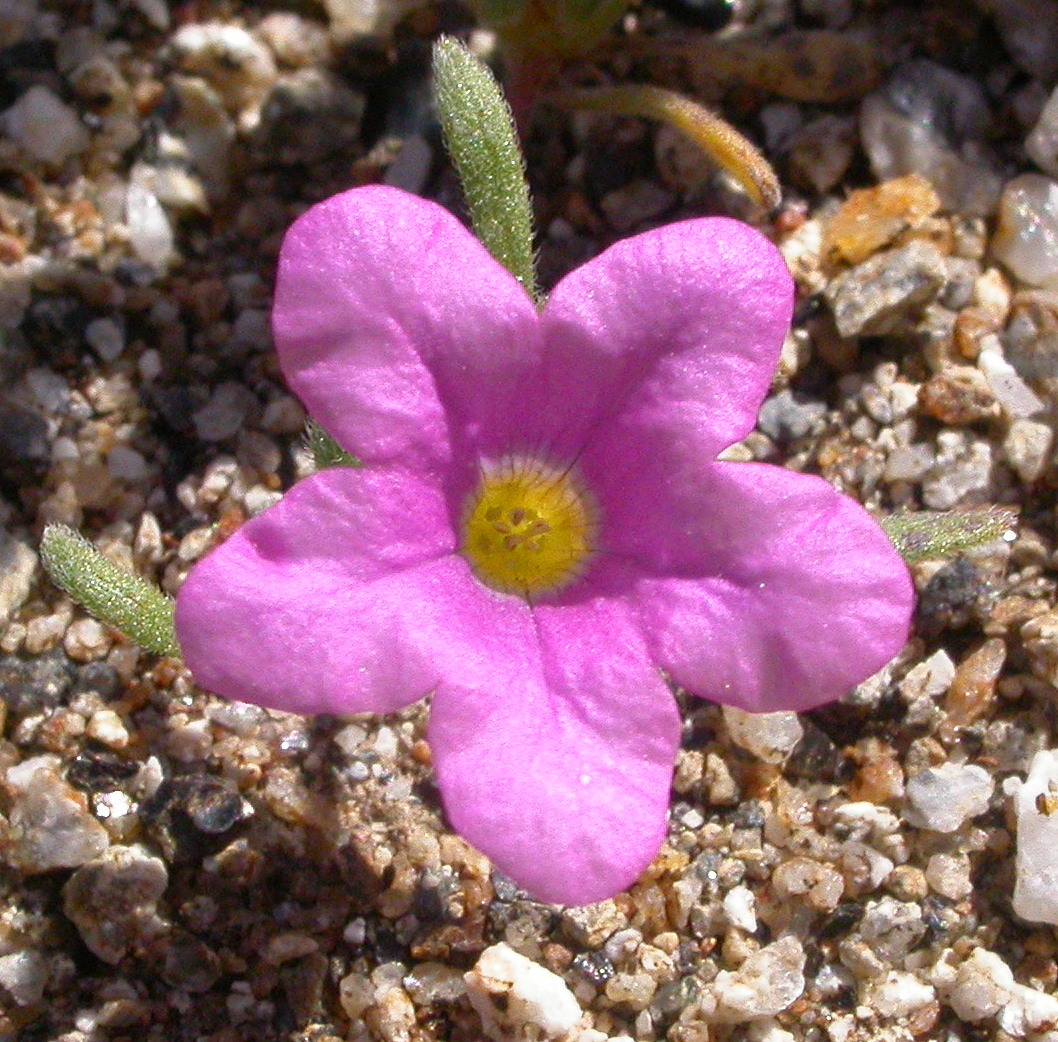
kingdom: Plantae
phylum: Tracheophyta
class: Magnoliopsida
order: Boraginales
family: Namaceae
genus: Nama
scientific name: Nama demissa
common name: Leafy nama
